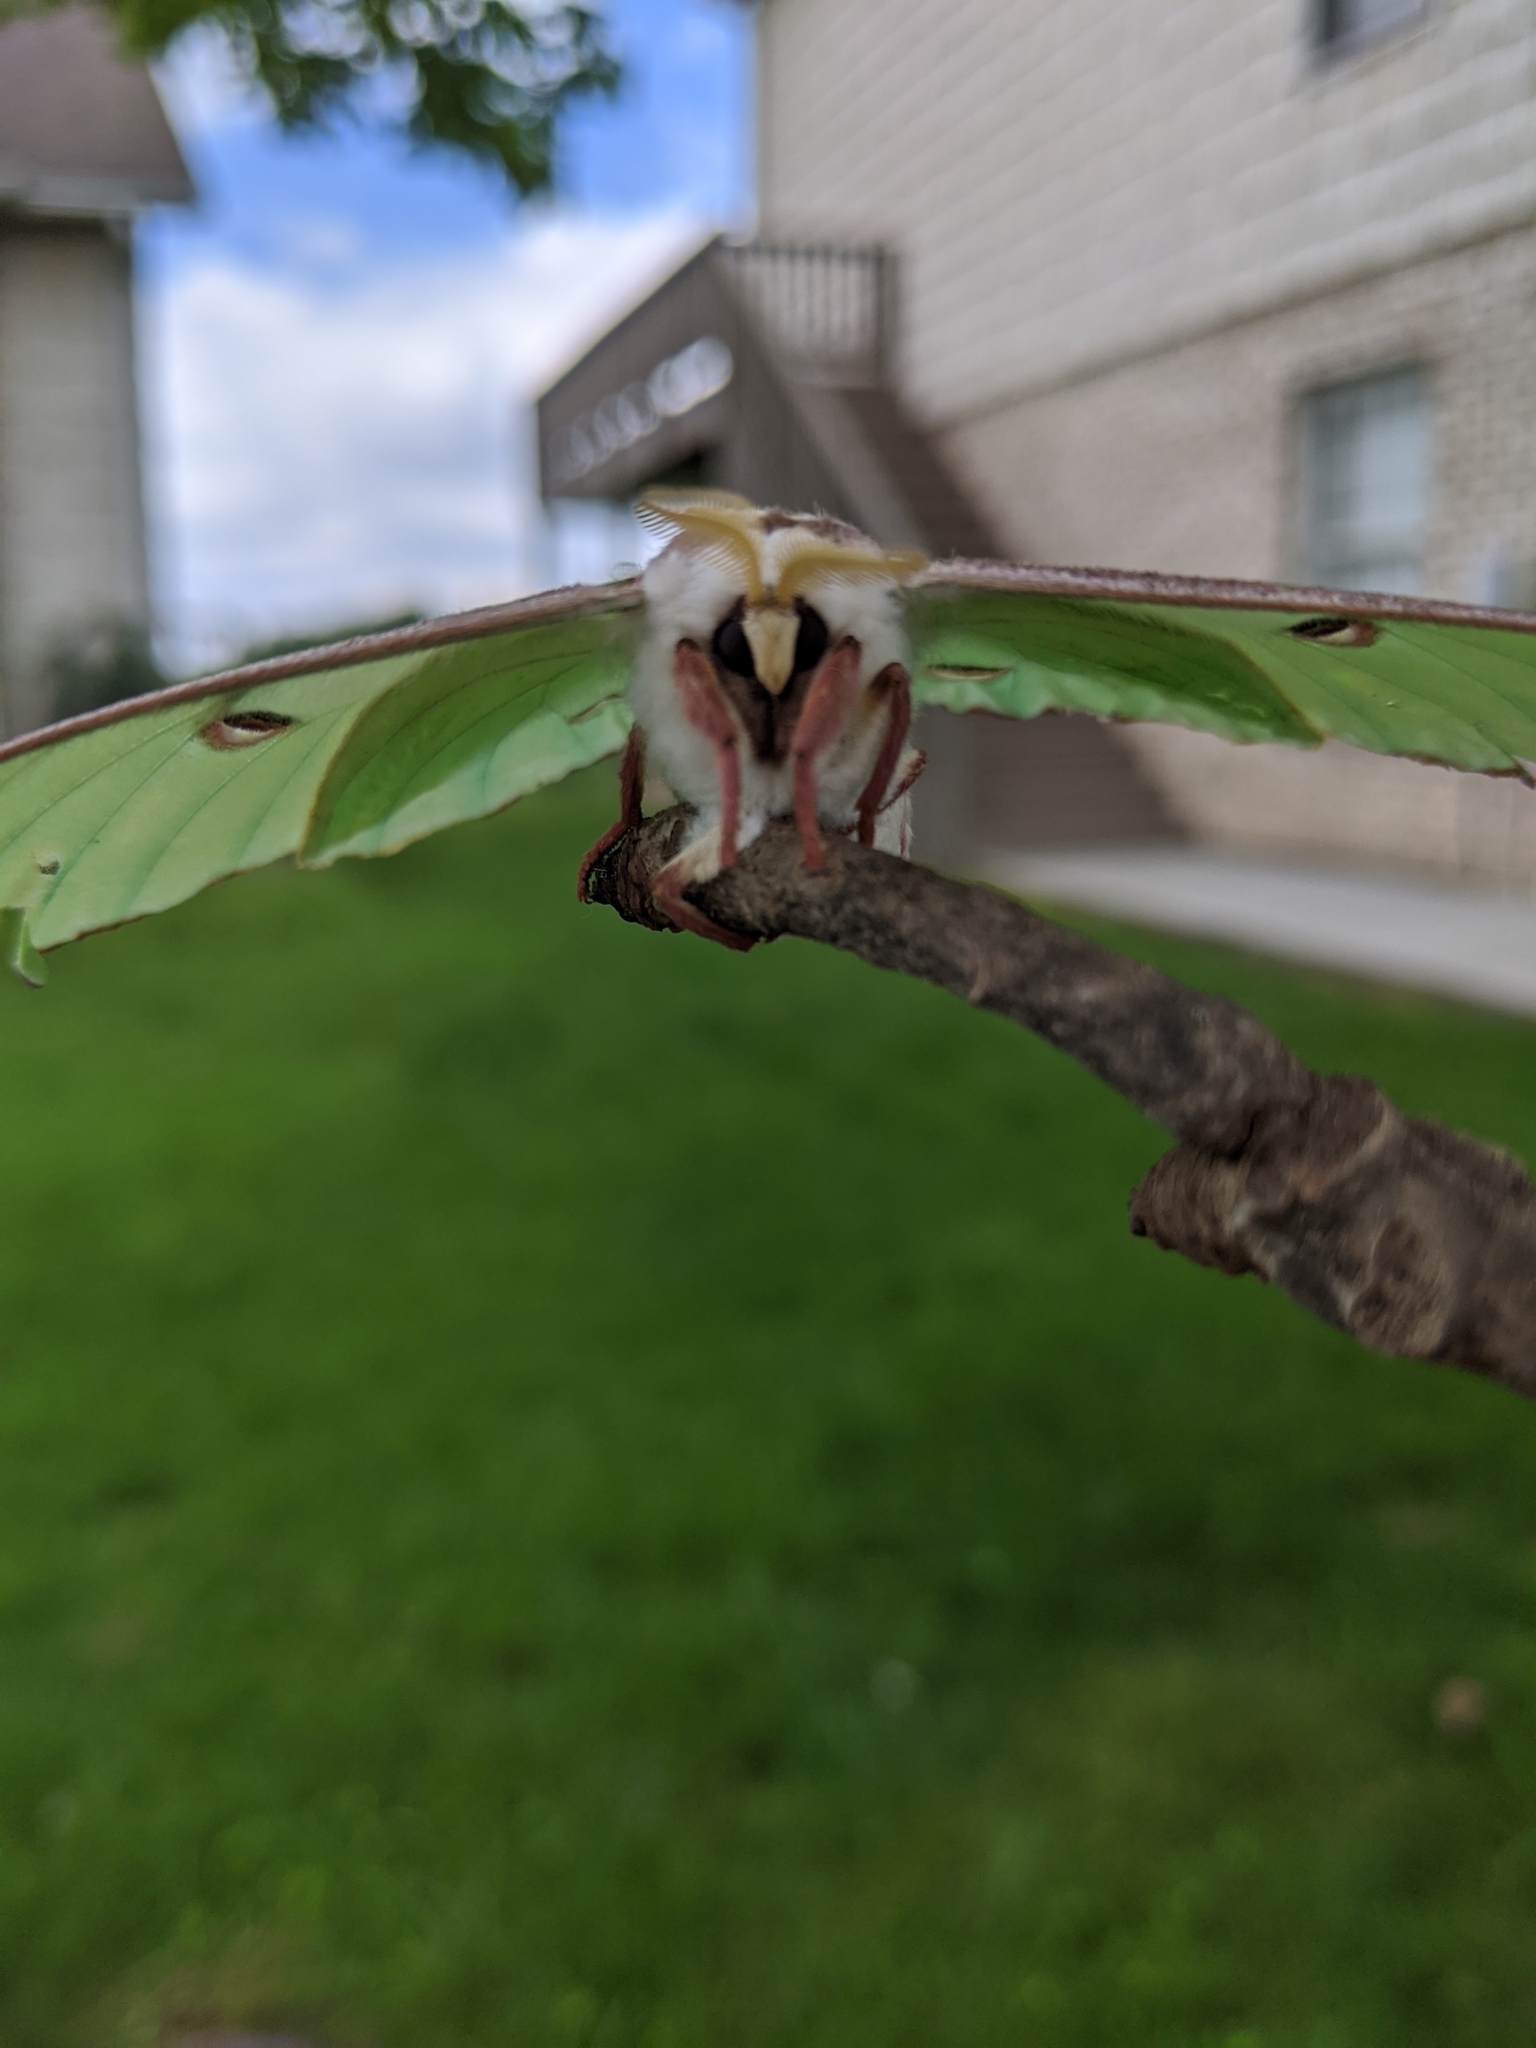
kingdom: Animalia
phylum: Arthropoda
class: Insecta
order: Lepidoptera
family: Saturniidae
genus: Actias
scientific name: Actias luna
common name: Luna moth
